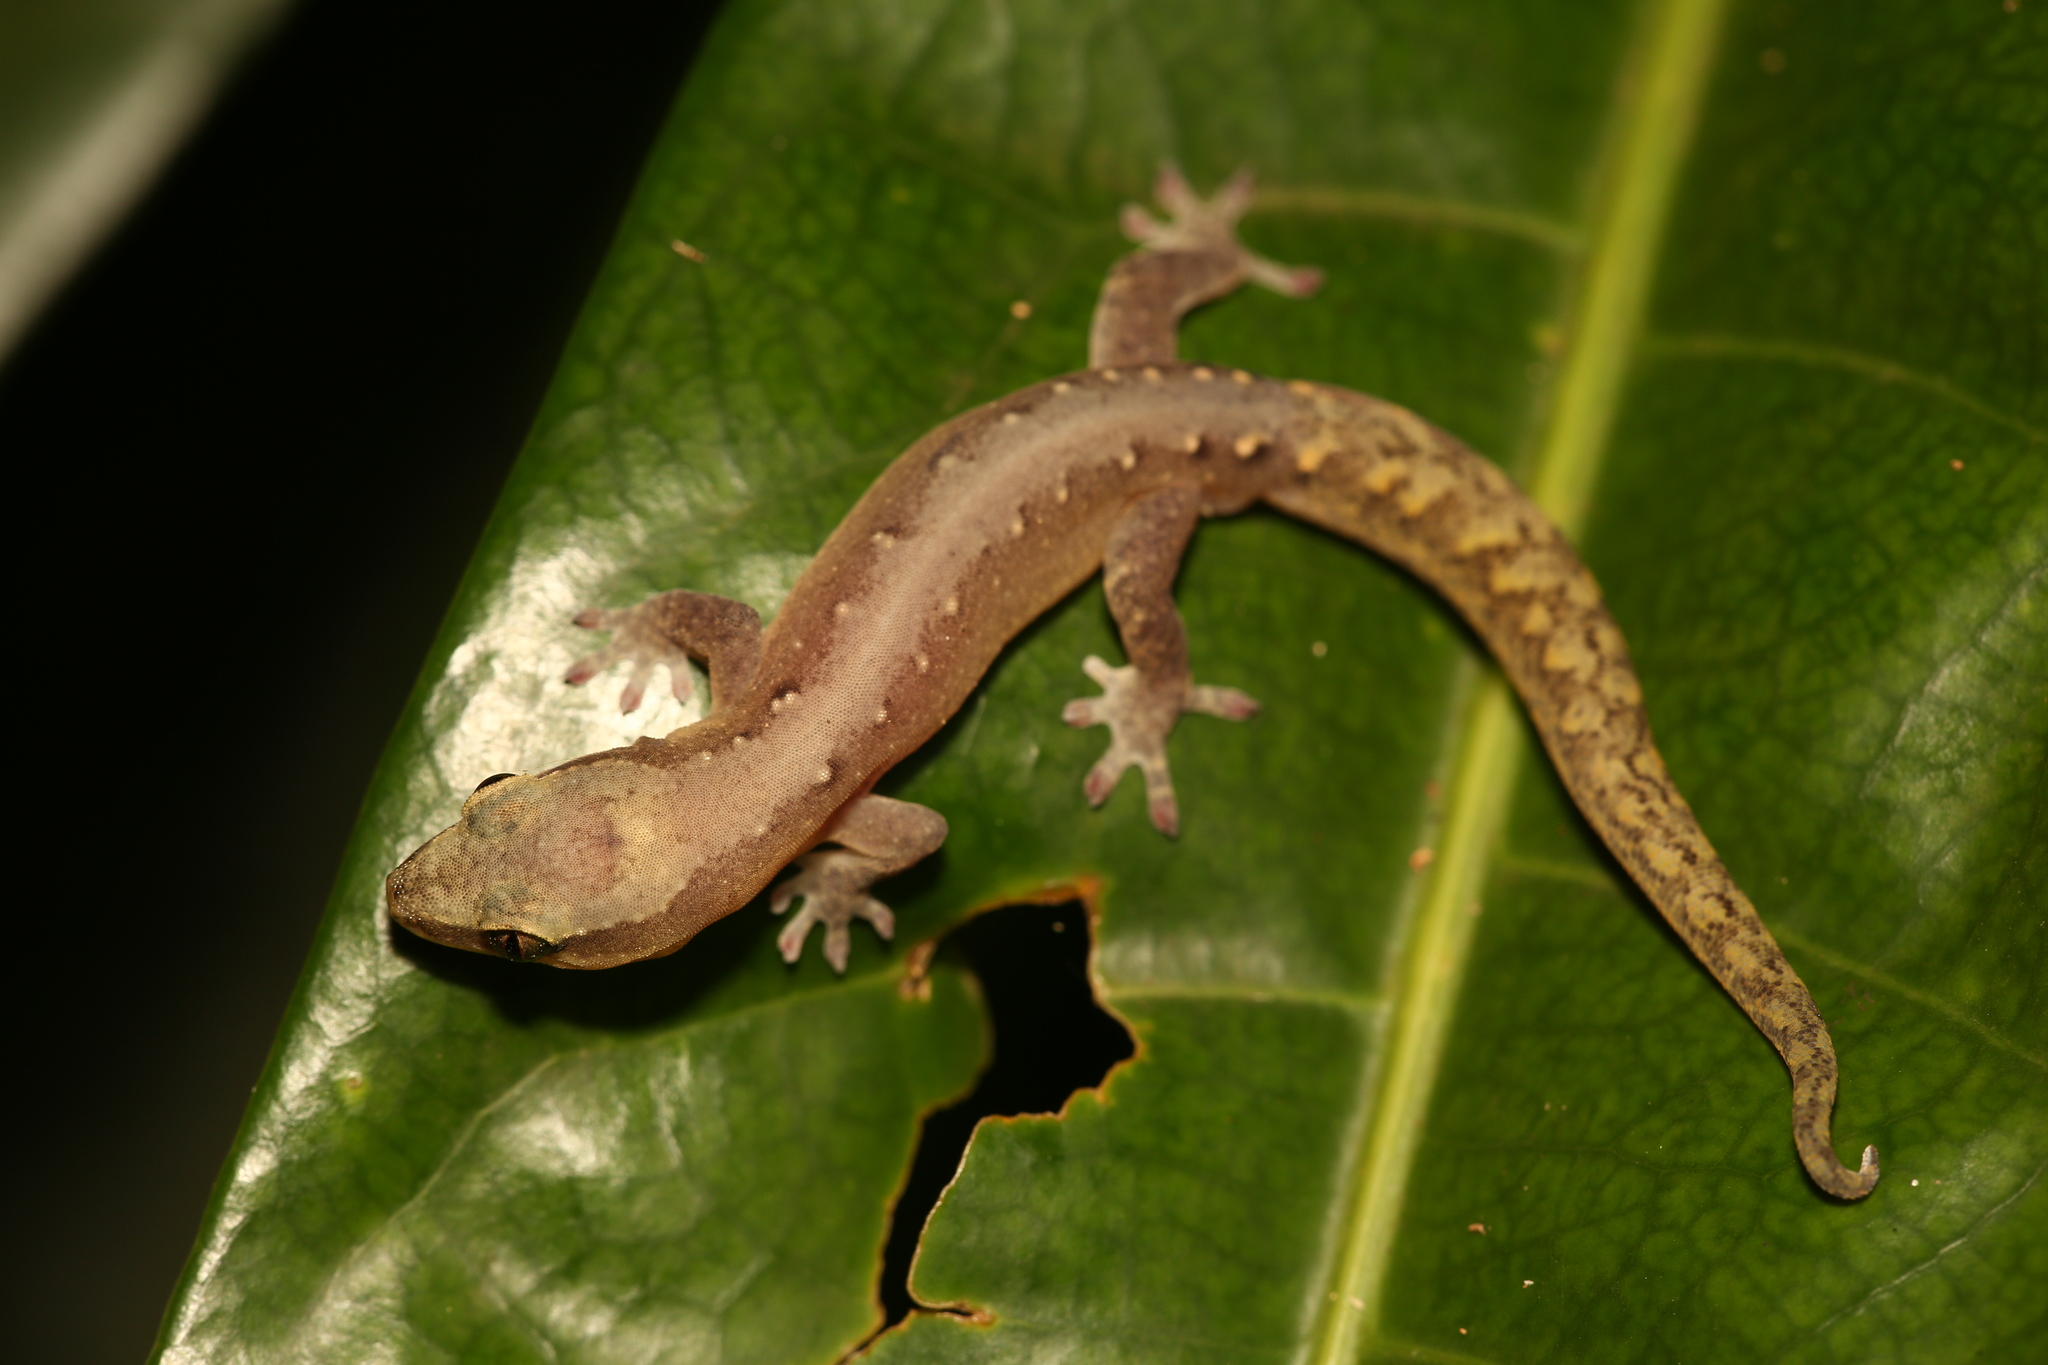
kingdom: Animalia
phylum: Chordata
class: Squamata
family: Diplodactylidae
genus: Dierogekko
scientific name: Dierogekko nehoueensis
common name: Striped gekko
